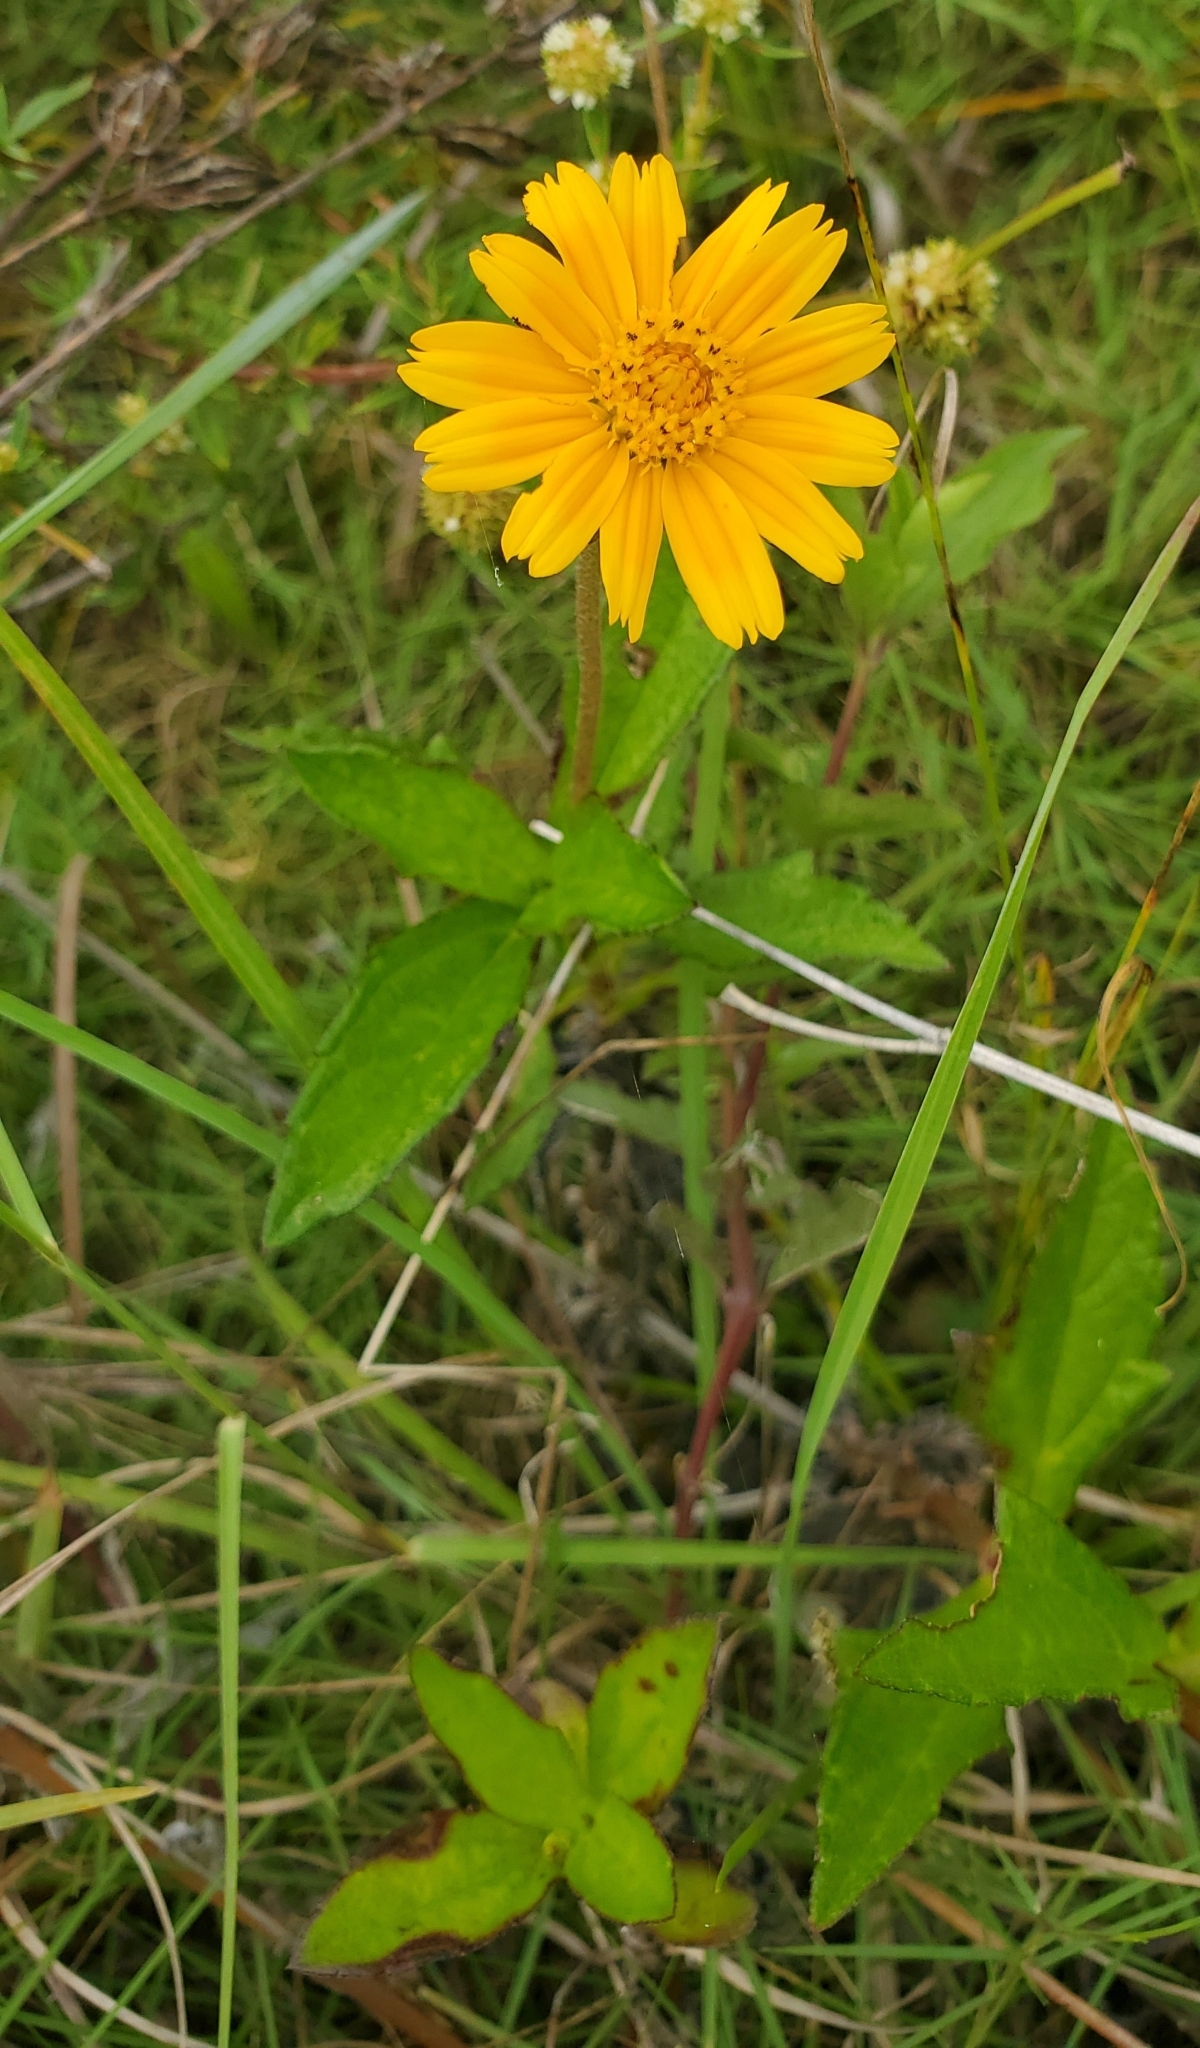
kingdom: Plantae
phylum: Tracheophyta
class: Magnoliopsida
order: Asterales
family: Asteraceae
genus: Sphagneticola
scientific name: Sphagneticola trilobata
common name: Bay biscayne creeping-oxeye
